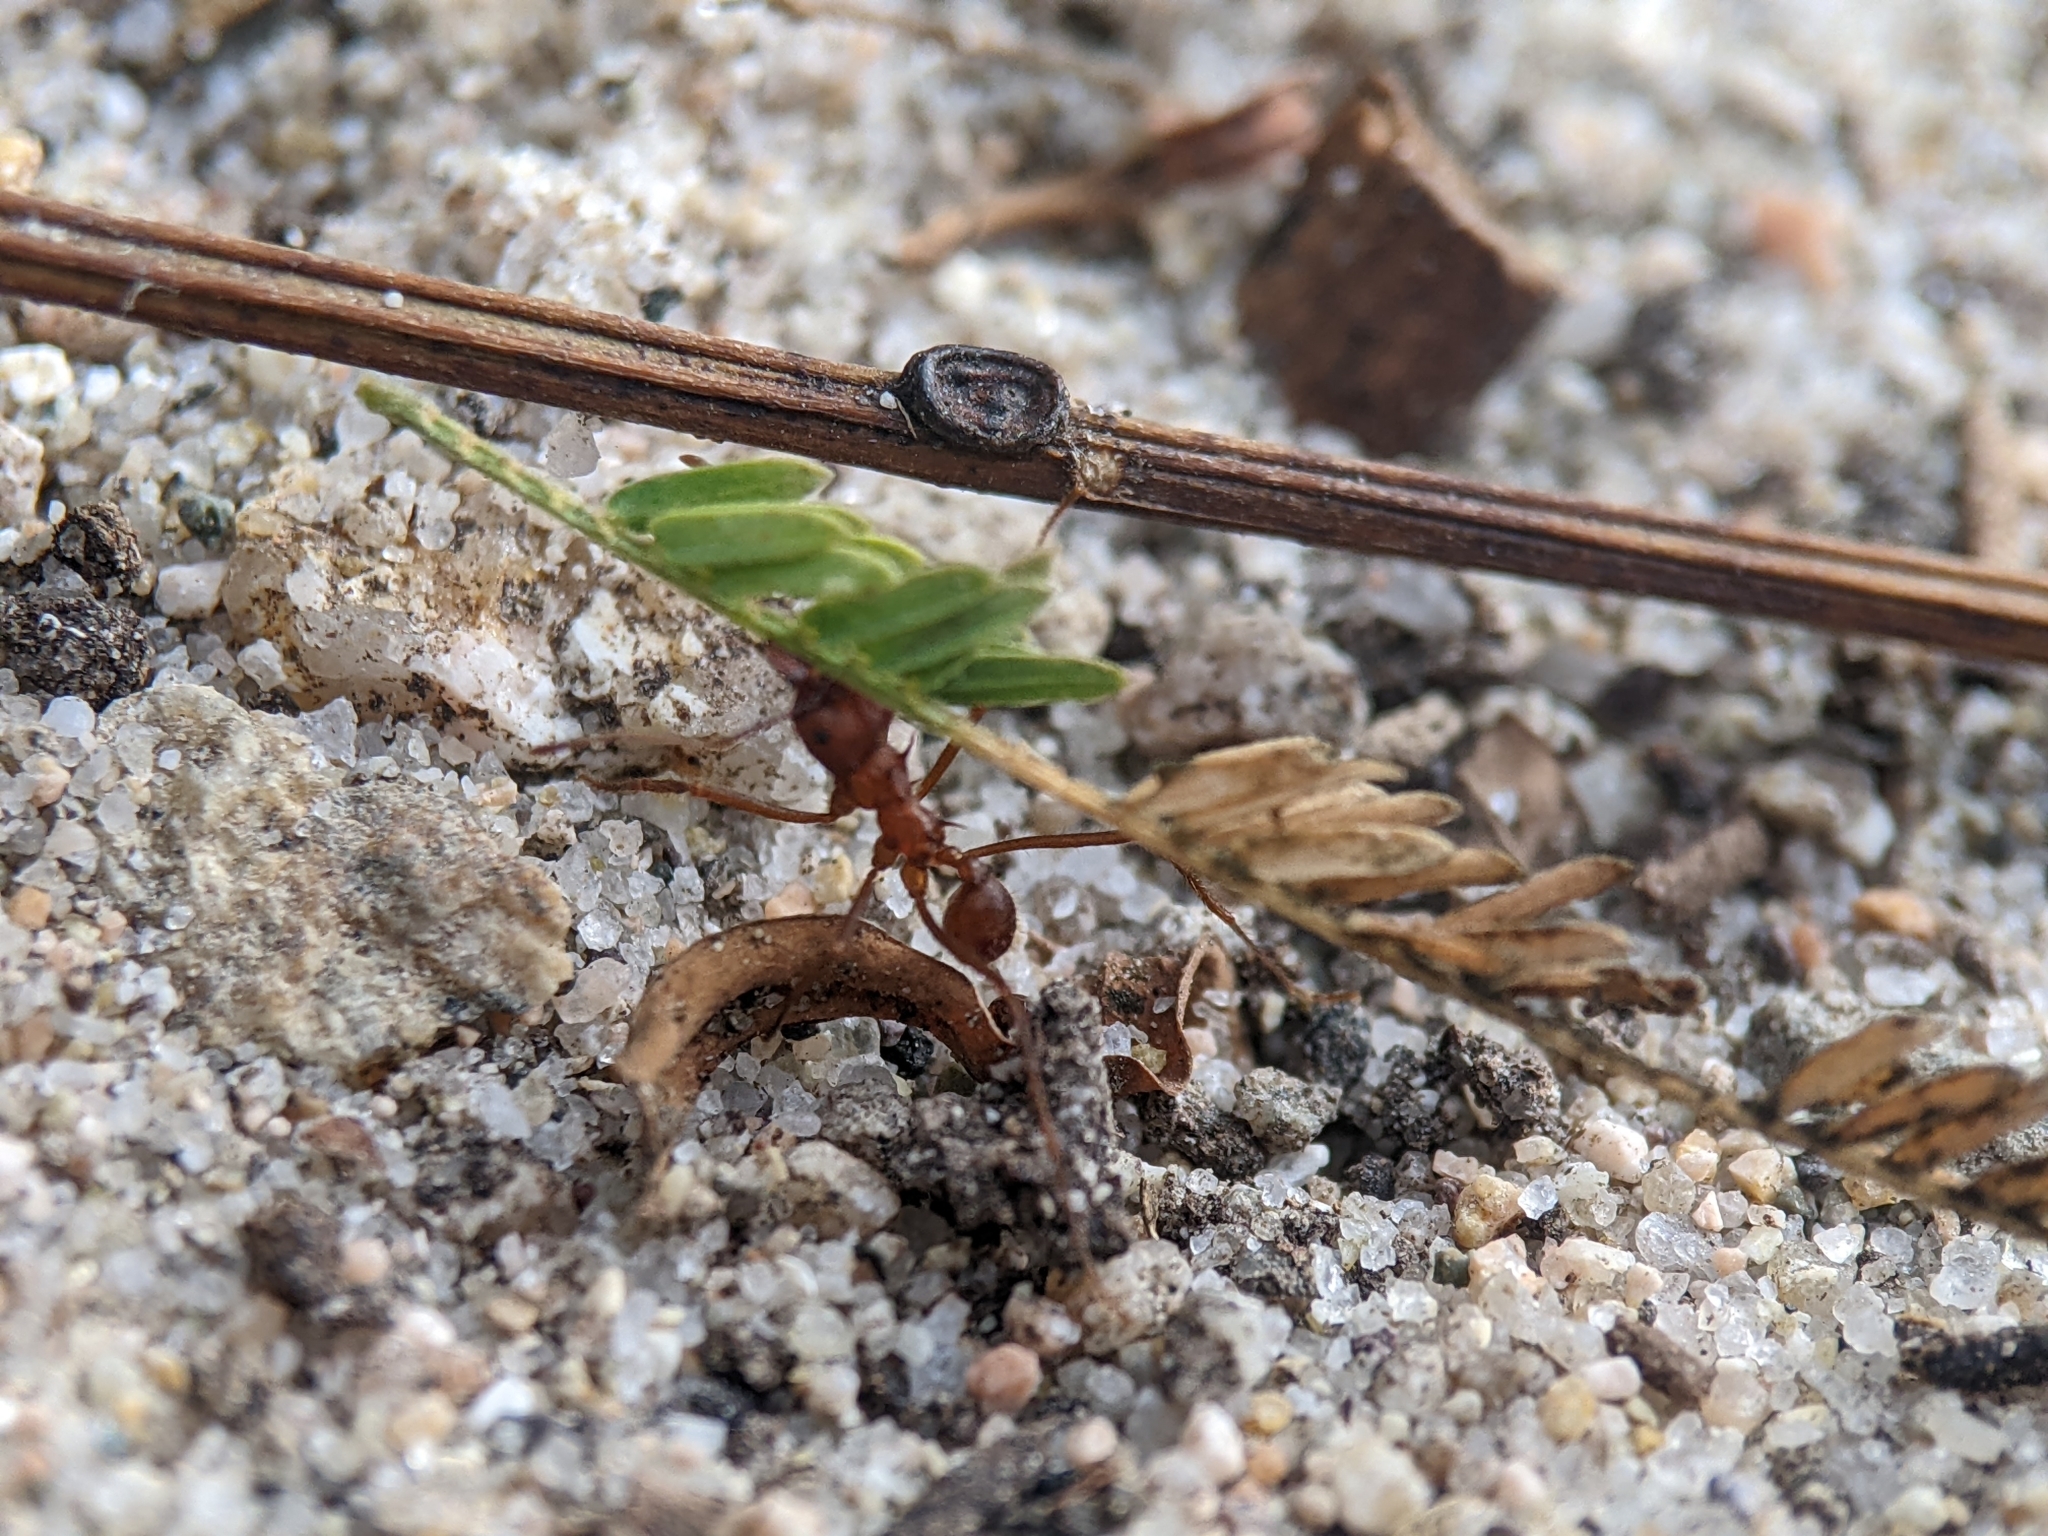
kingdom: Animalia
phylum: Arthropoda
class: Insecta
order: Hymenoptera
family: Formicidae
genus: Atta
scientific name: Atta mexicana
